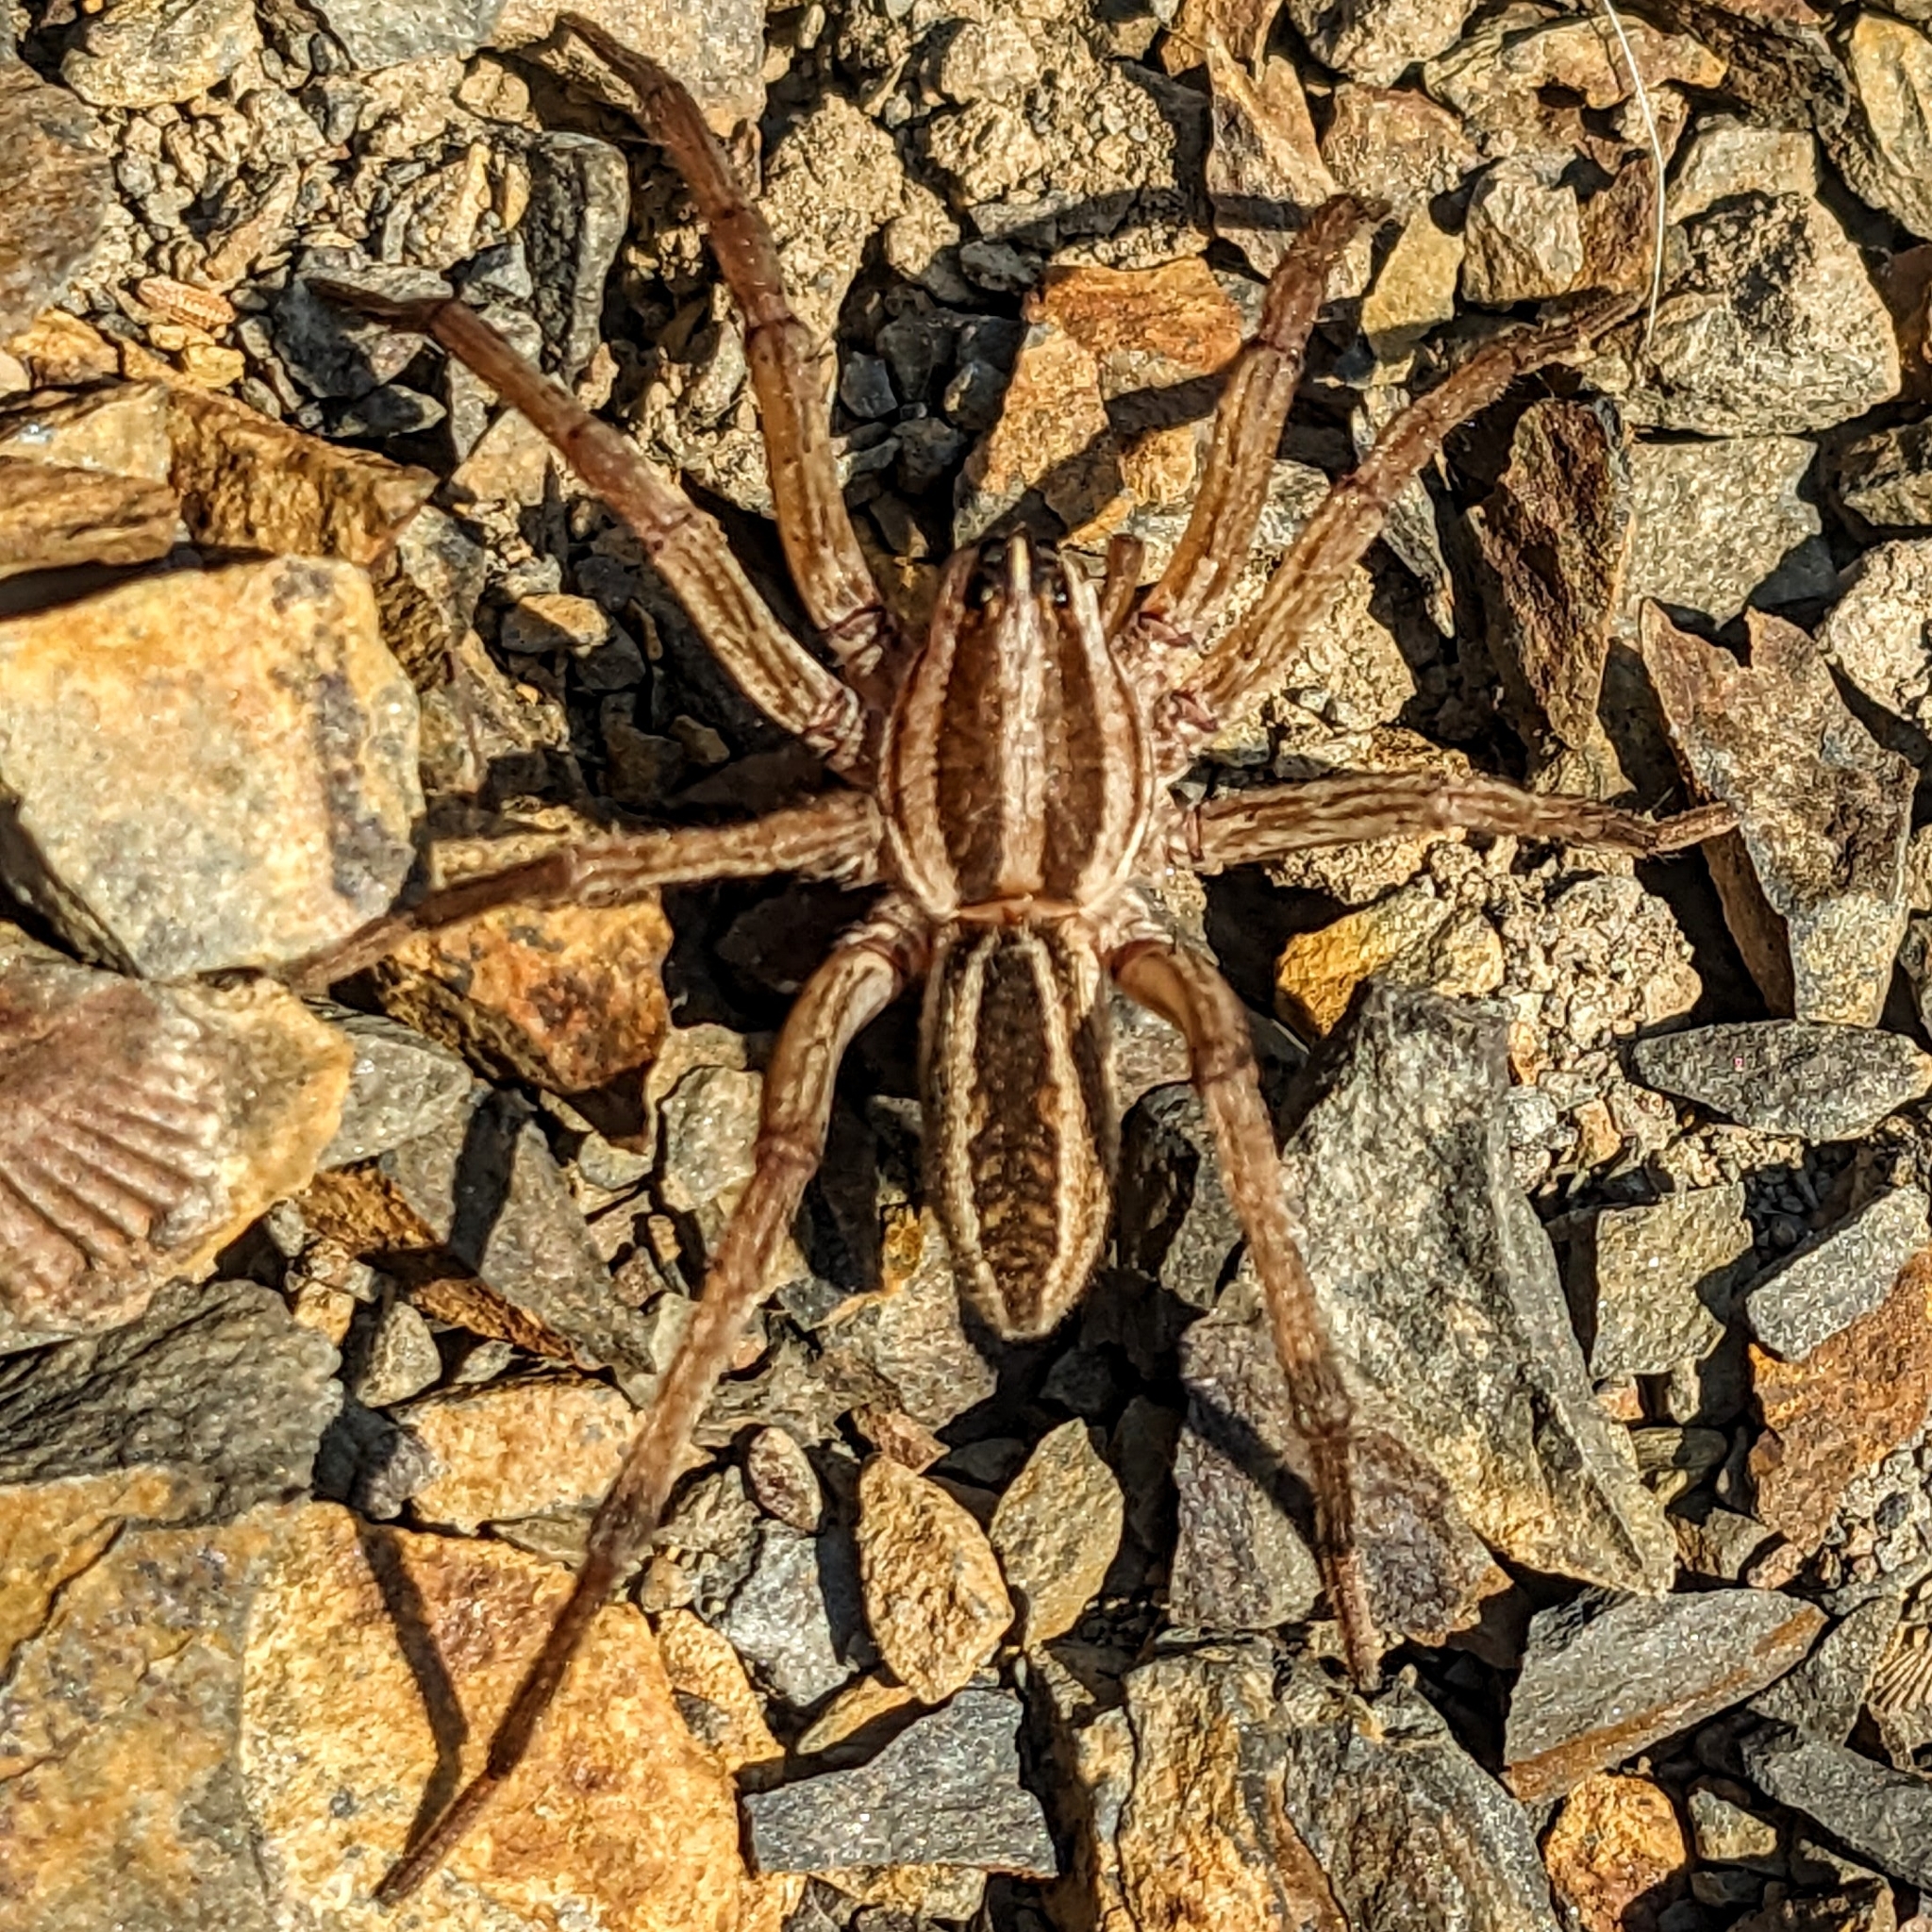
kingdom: Animalia
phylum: Arthropoda
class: Arachnida
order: Araneae
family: Lycosidae
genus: Rabidosa
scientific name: Rabidosa rabida
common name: Rabid wolf spider
